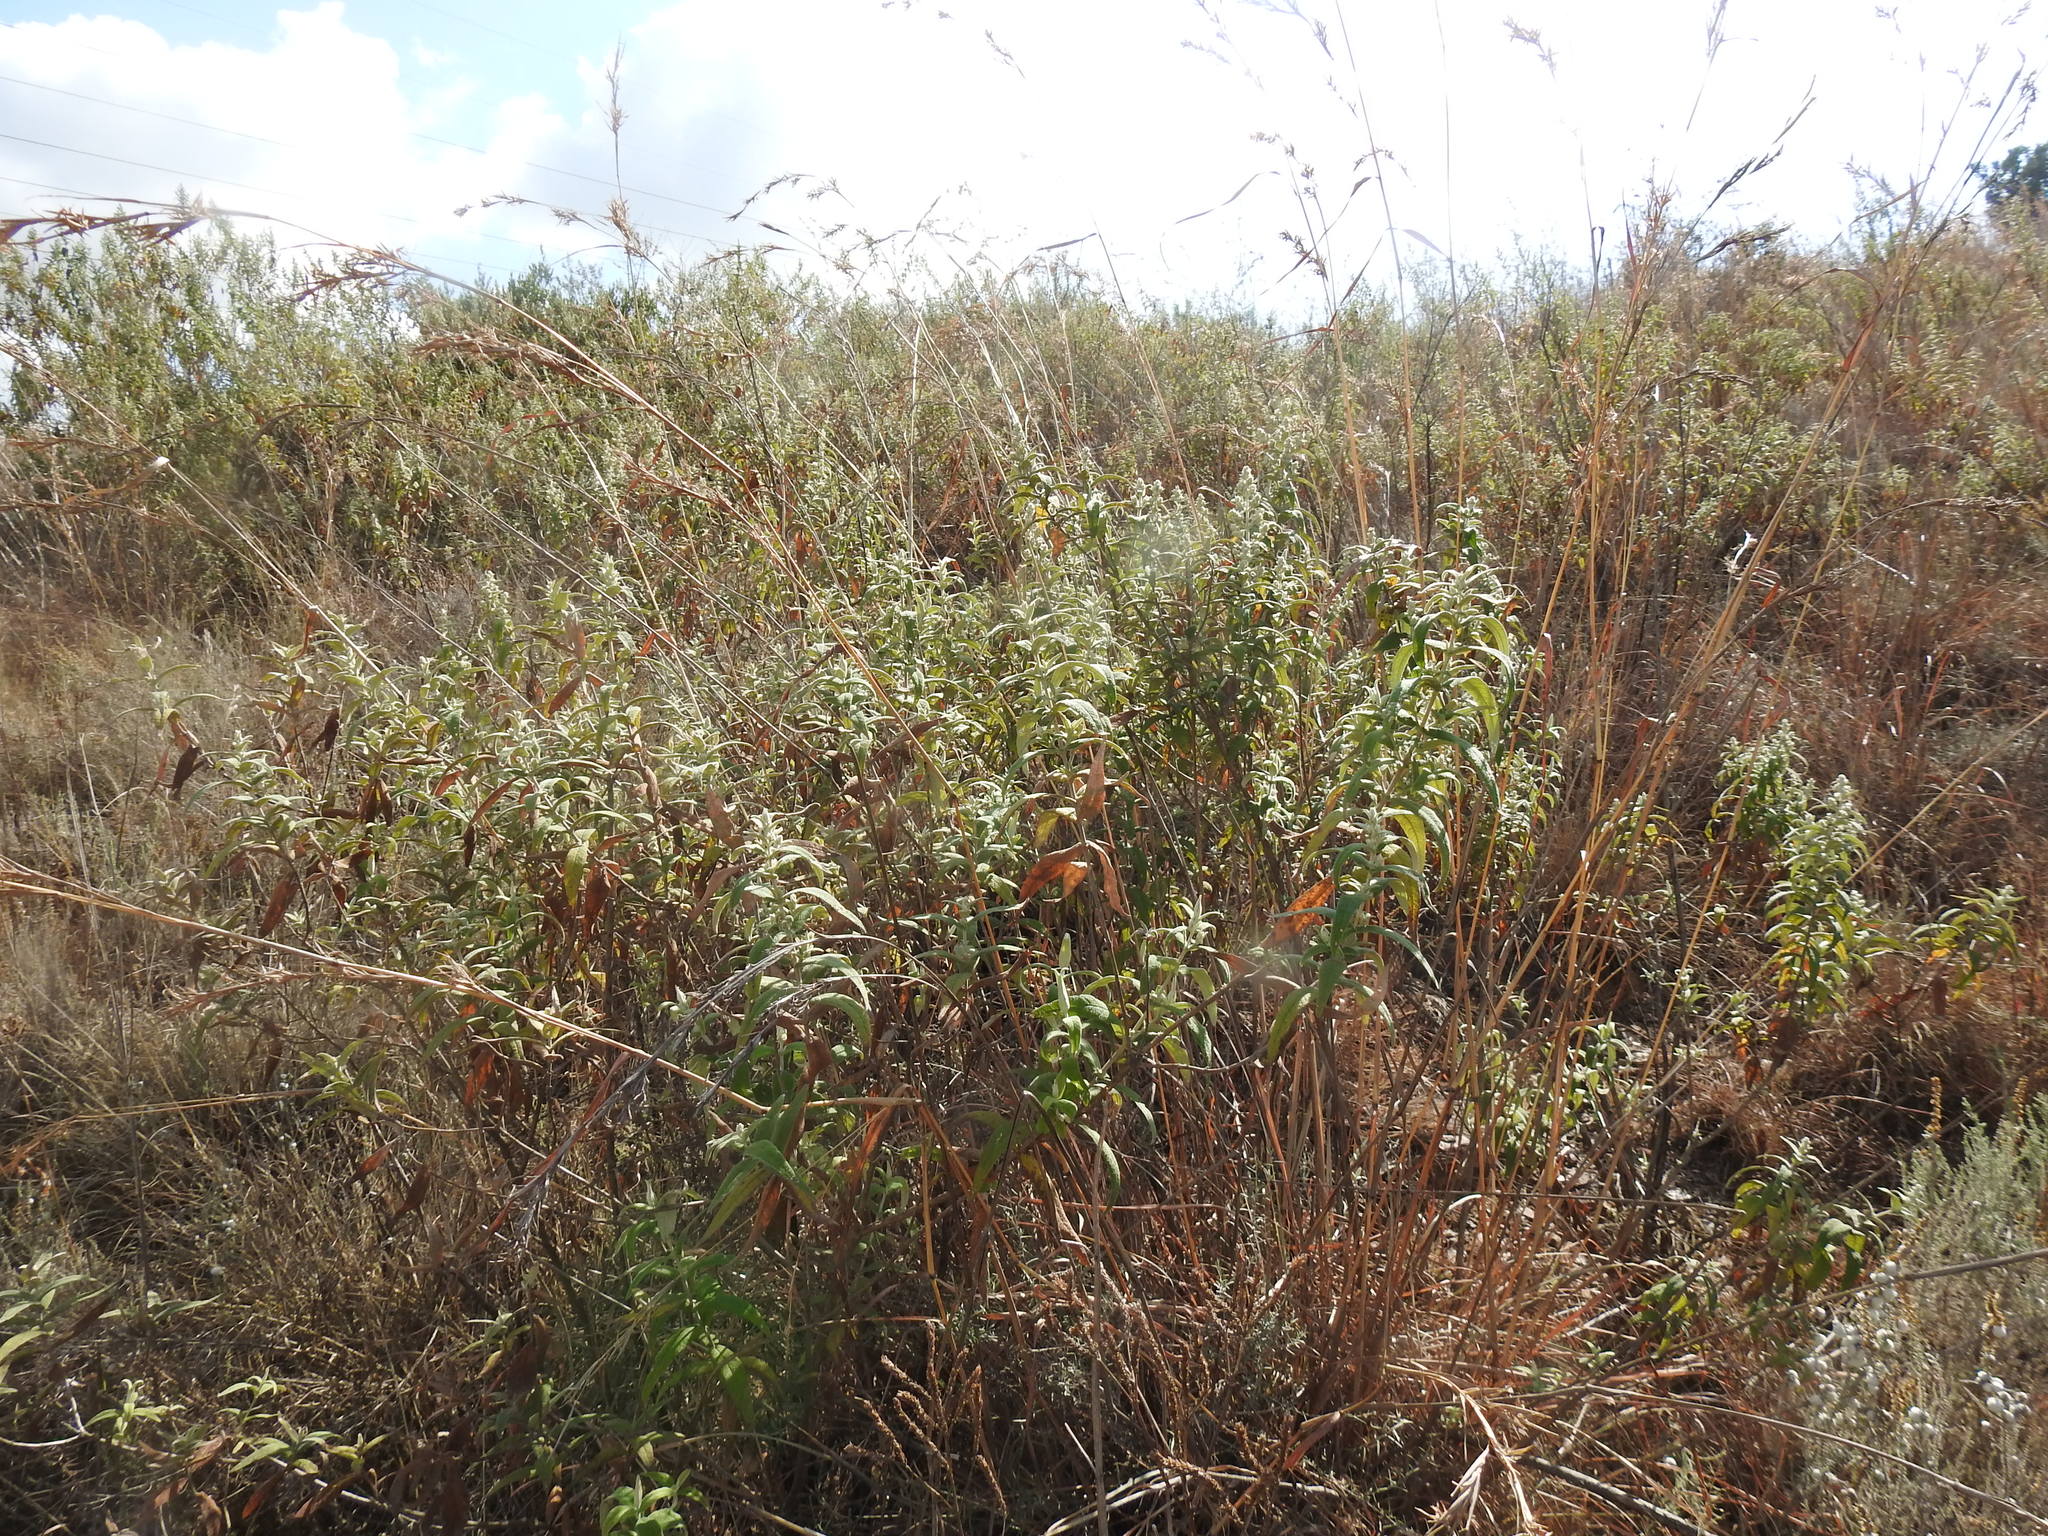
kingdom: Plantae
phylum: Tracheophyta
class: Magnoliopsida
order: Lamiales
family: Scrophulariaceae
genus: Buddleja
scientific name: Buddleja salviifolia
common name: Sagewood
